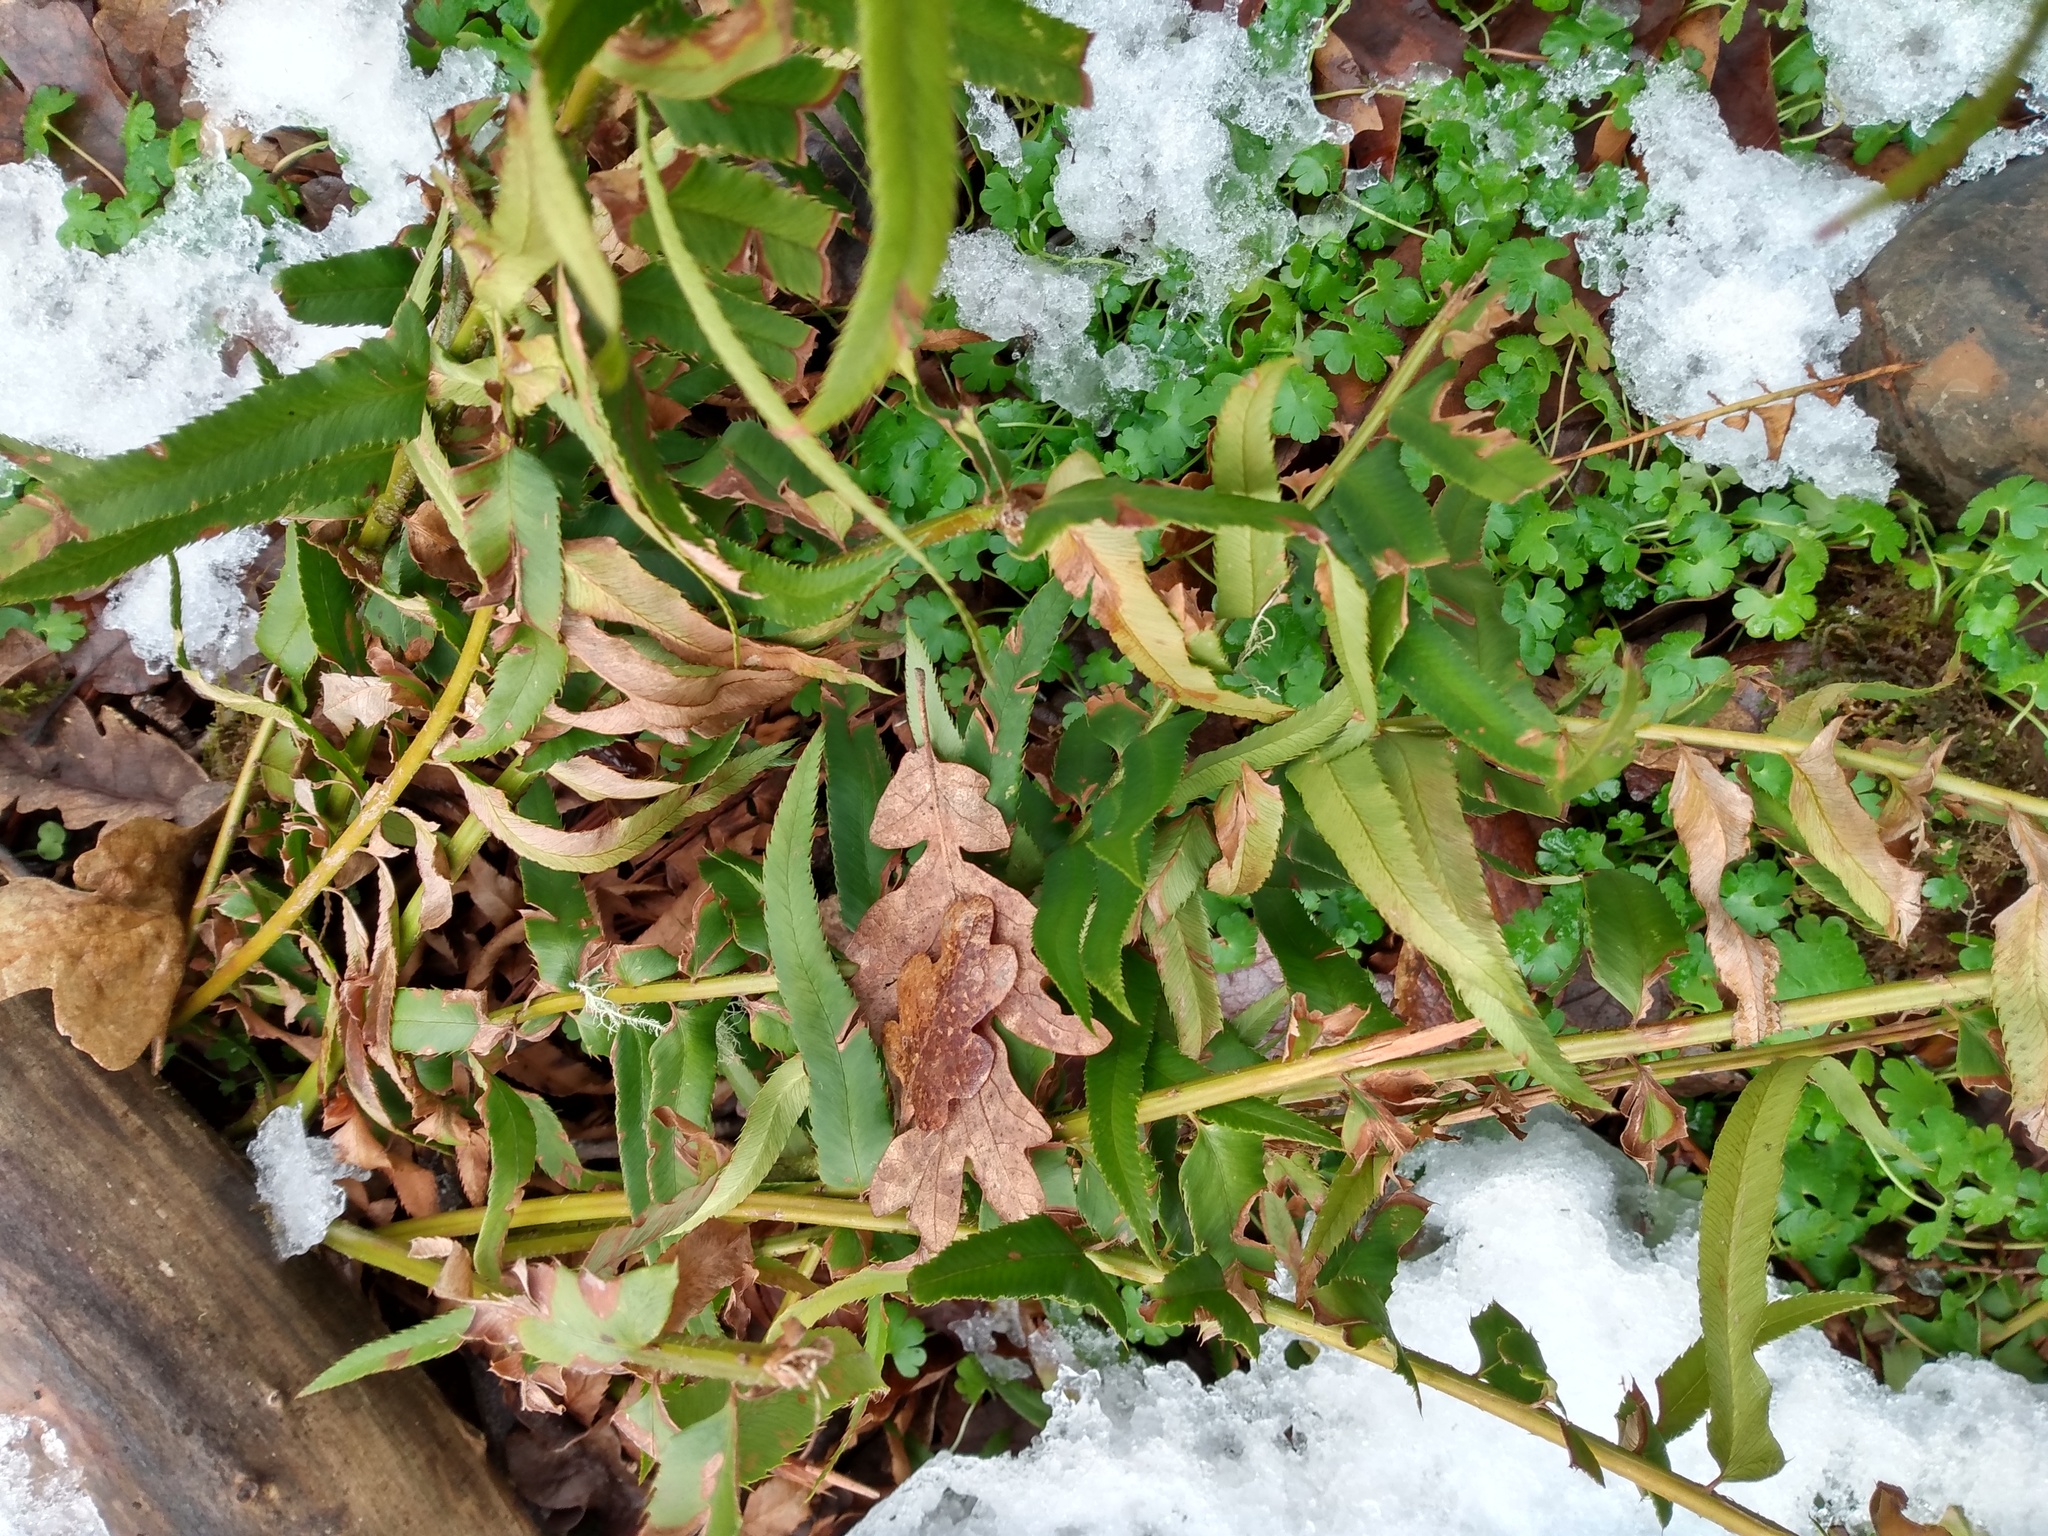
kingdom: Plantae
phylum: Tracheophyta
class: Polypodiopsida
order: Polypodiales
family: Dryopteridaceae
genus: Polystichum
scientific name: Polystichum munitum
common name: Western sword-fern
